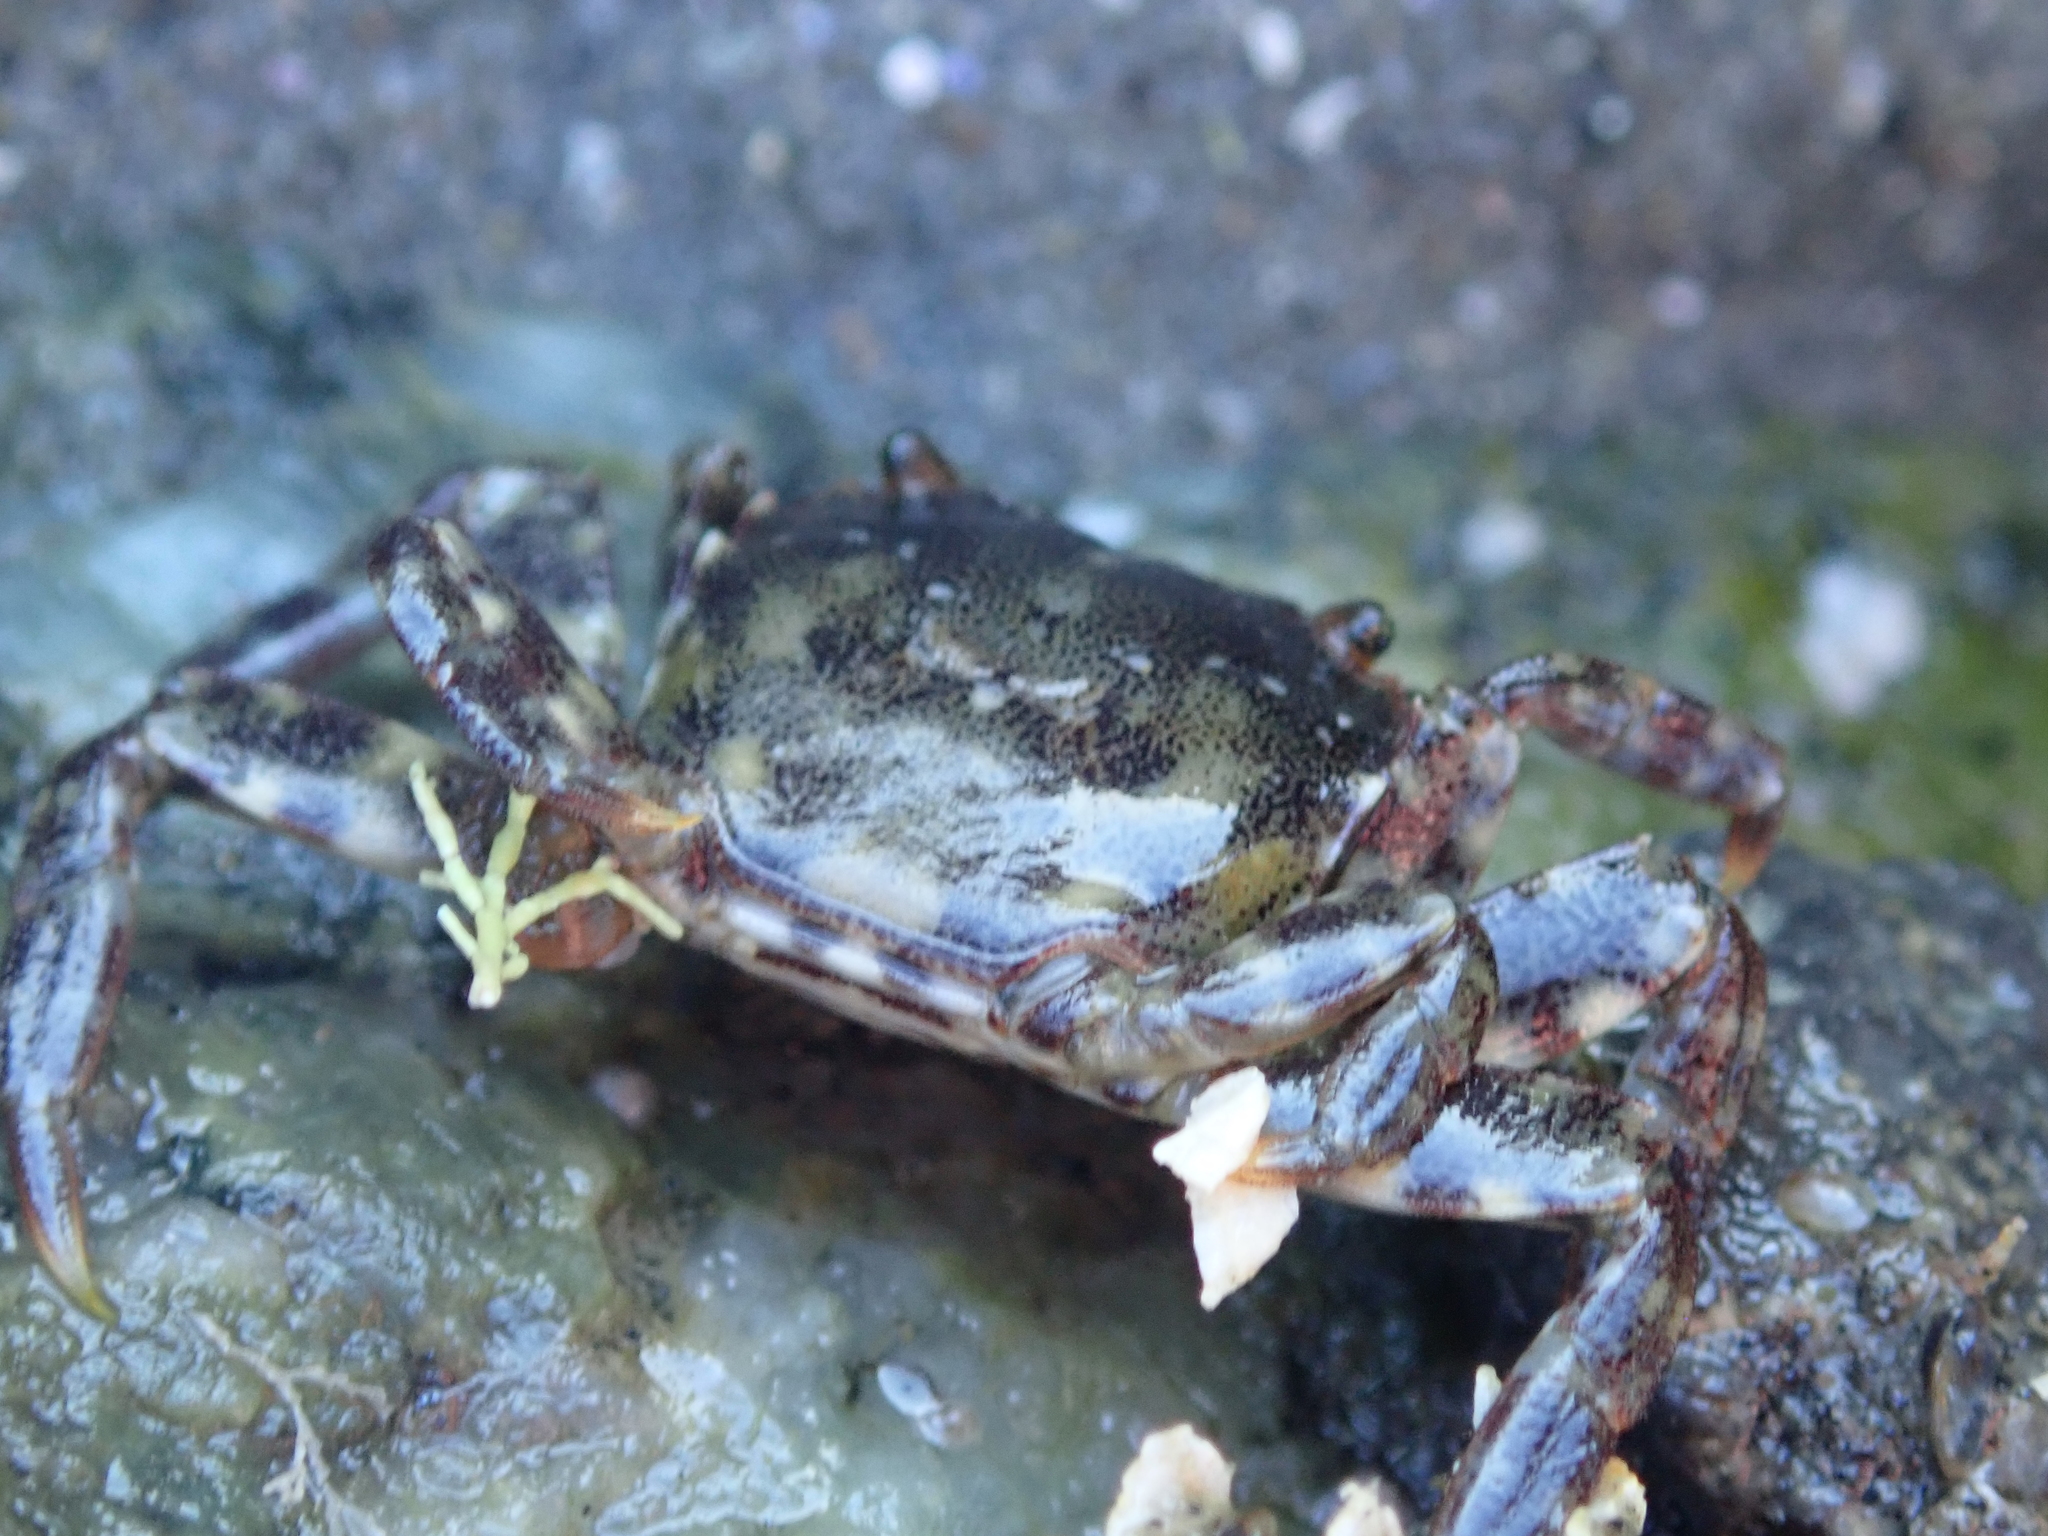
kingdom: Animalia
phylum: Arthropoda
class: Malacostraca
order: Decapoda
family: Varunidae
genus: Hemigrapsus
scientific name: Hemigrapsus sanguineus
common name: Asian shore crab
